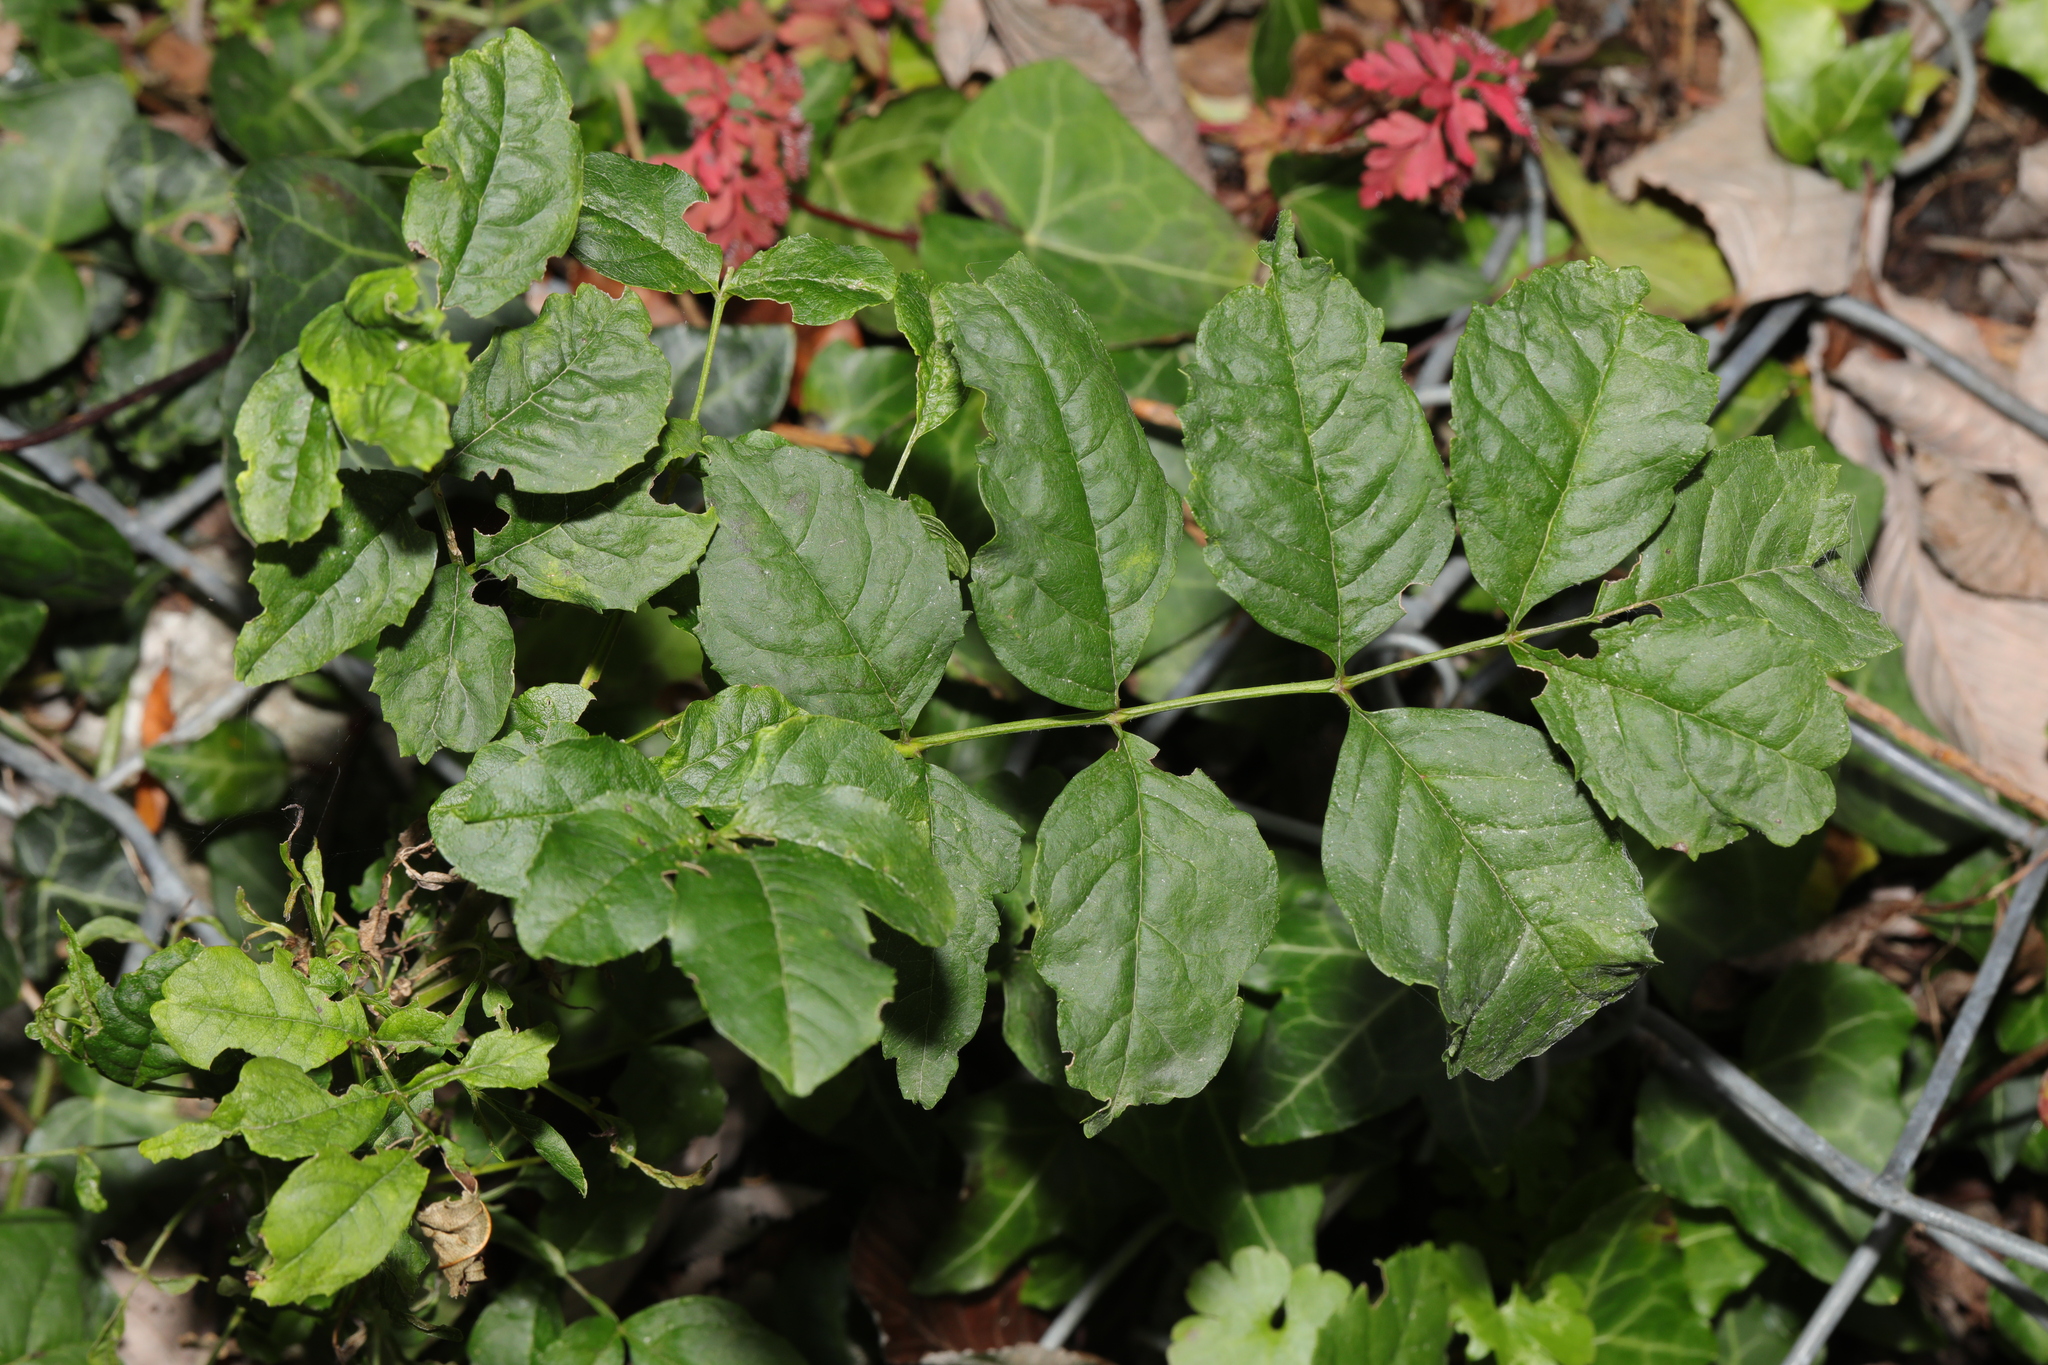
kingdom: Plantae
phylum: Tracheophyta
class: Magnoliopsida
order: Lamiales
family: Oleaceae
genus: Fraxinus
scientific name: Fraxinus excelsior
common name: European ash
